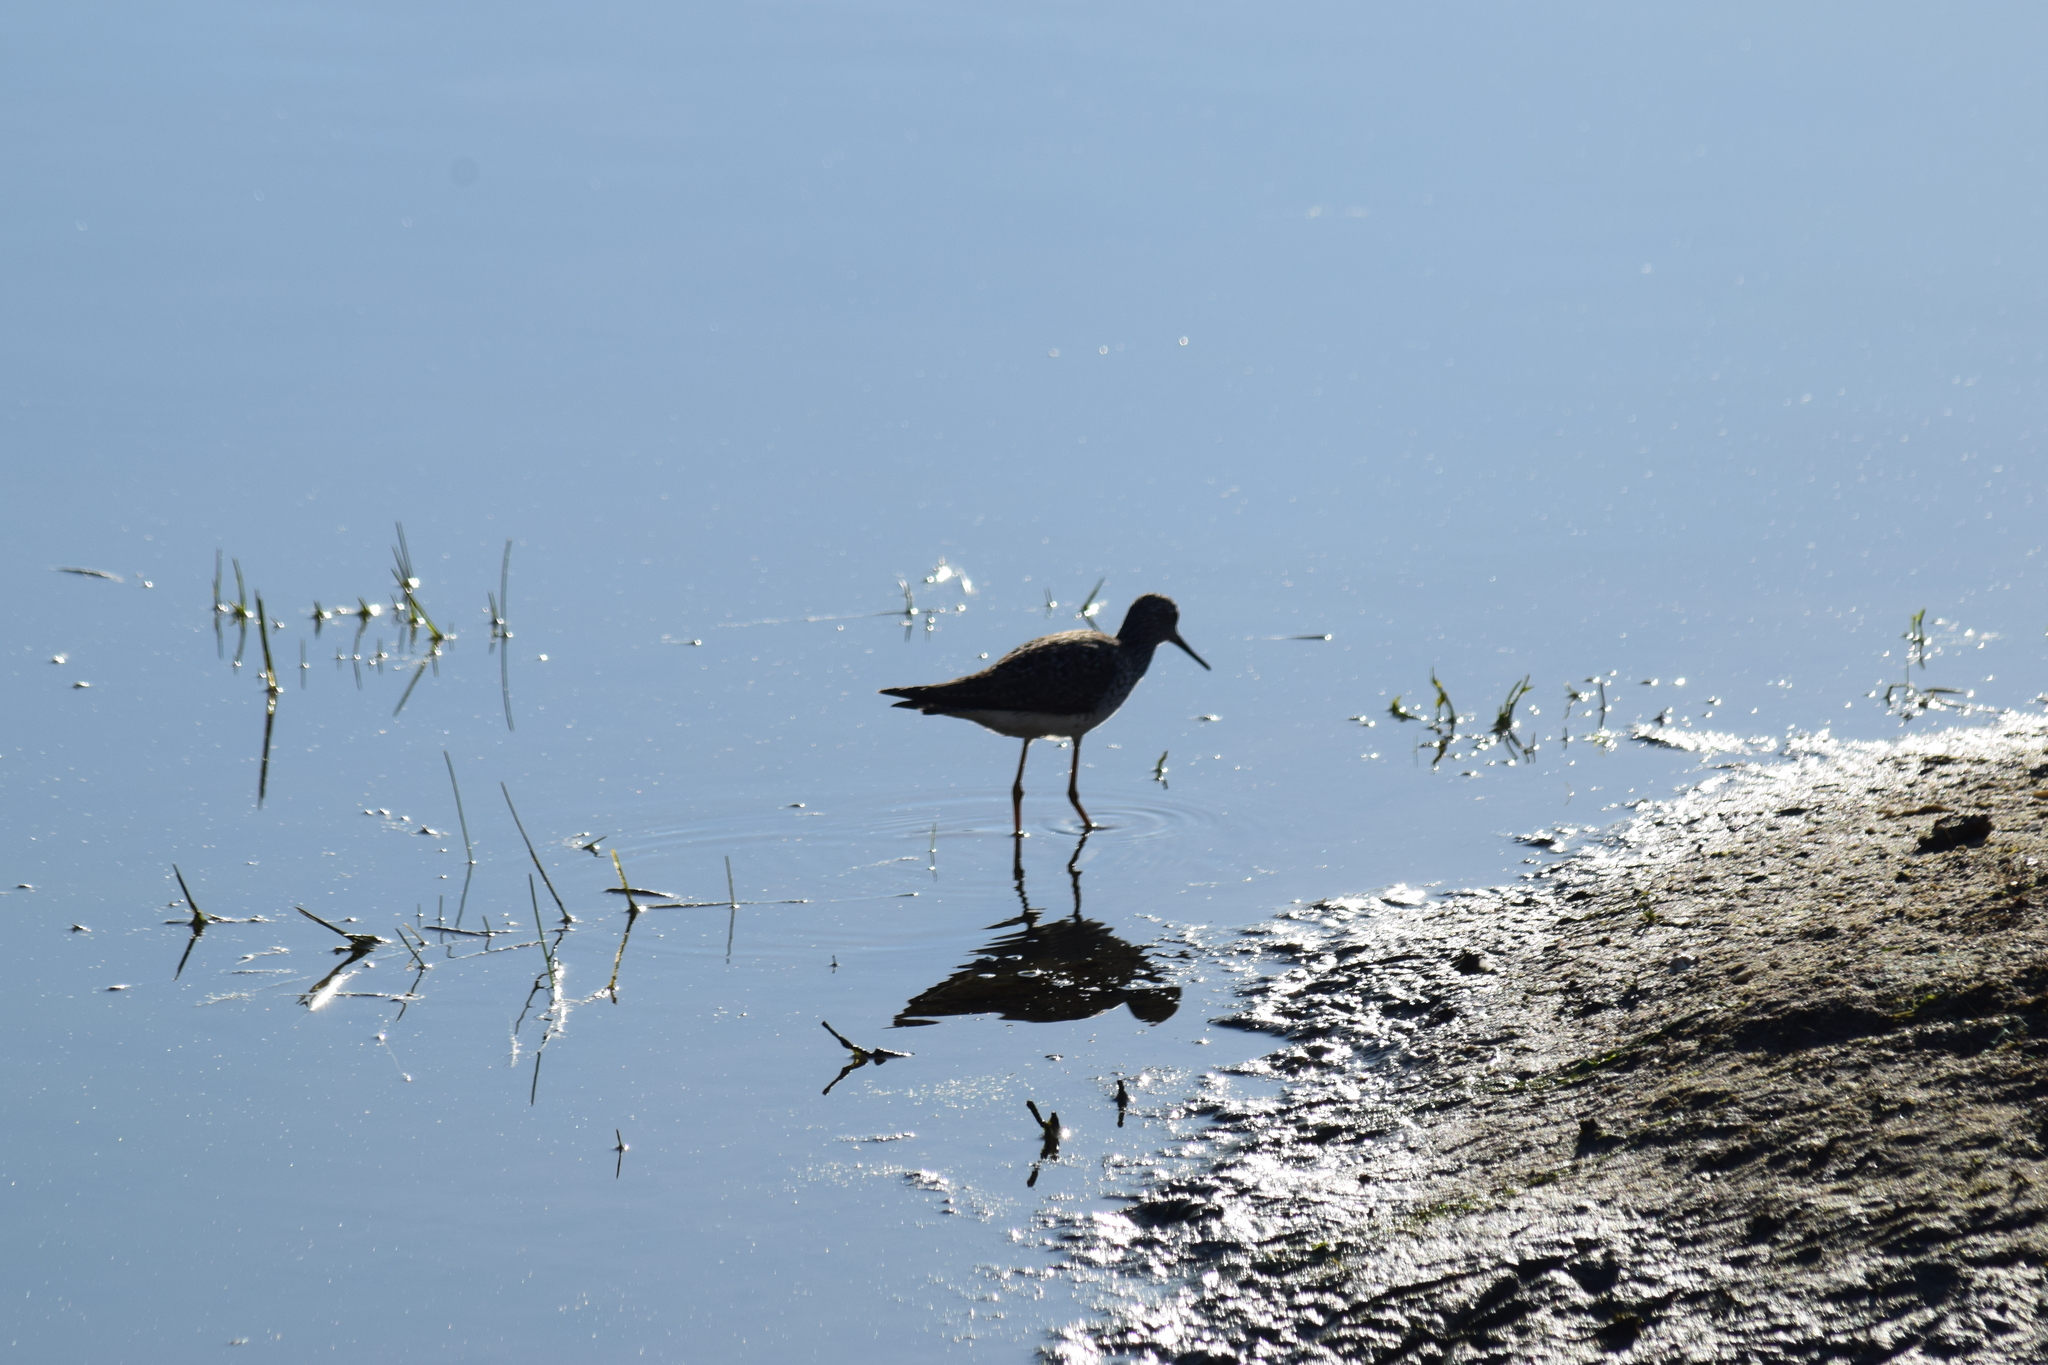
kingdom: Animalia
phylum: Chordata
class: Aves
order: Charadriiformes
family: Scolopacidae
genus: Tringa
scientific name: Tringa flavipes
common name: Lesser yellowlegs
